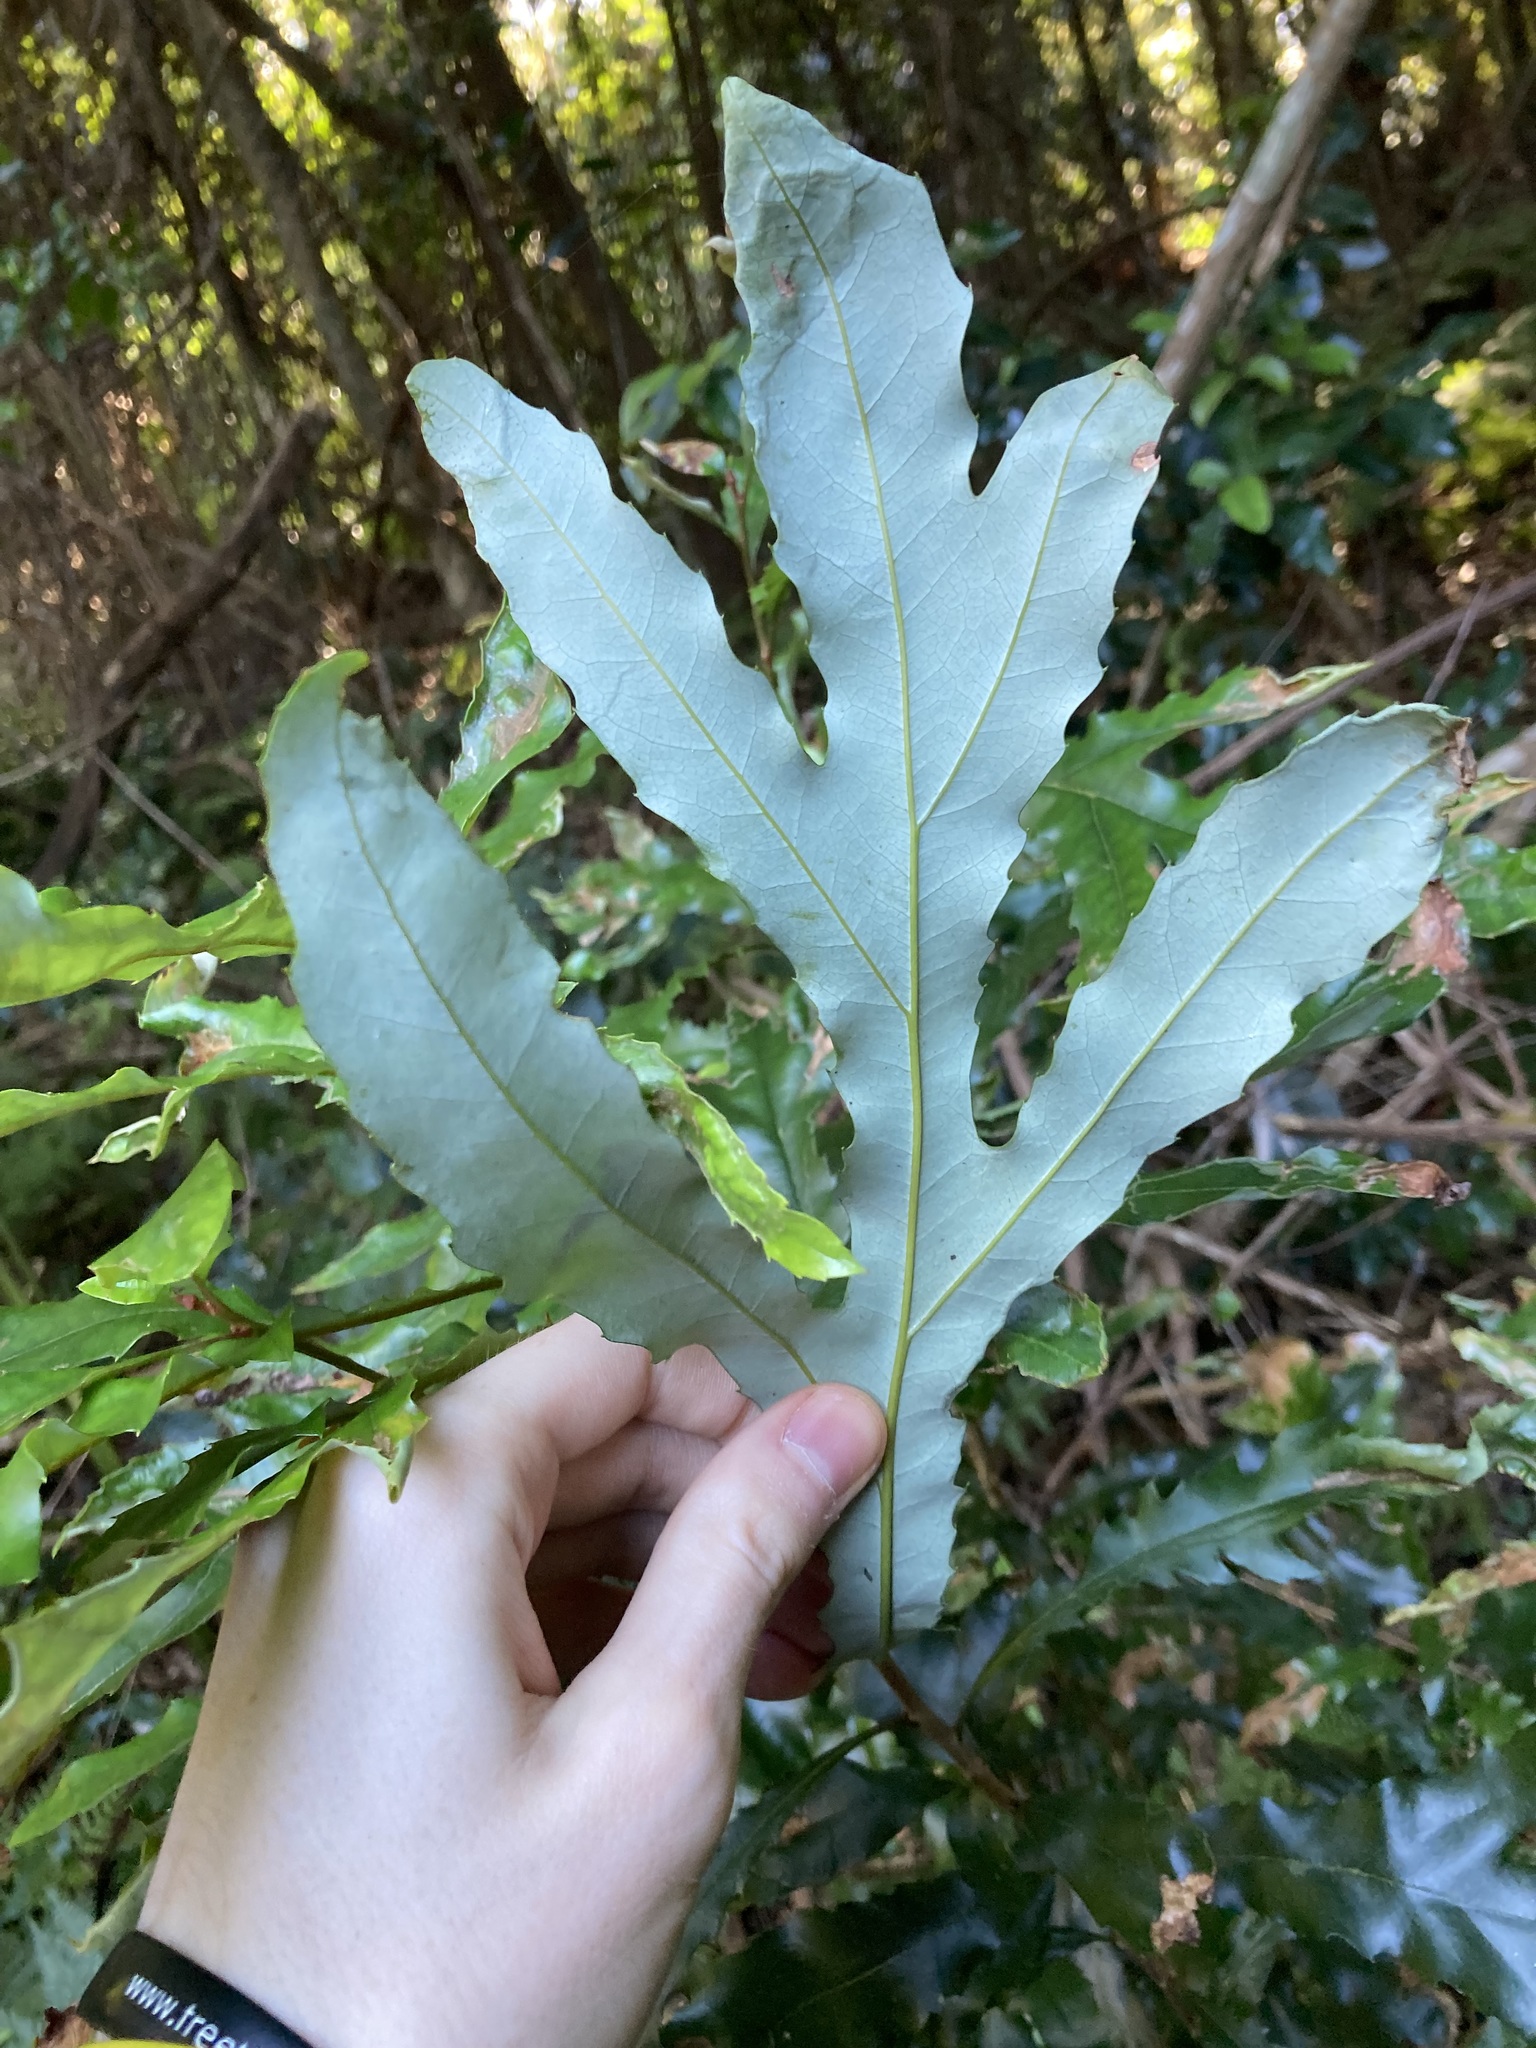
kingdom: Plantae
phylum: Tracheophyta
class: Magnoliopsida
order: Proteales
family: Proteaceae
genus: Orites
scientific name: Orites excelsus
